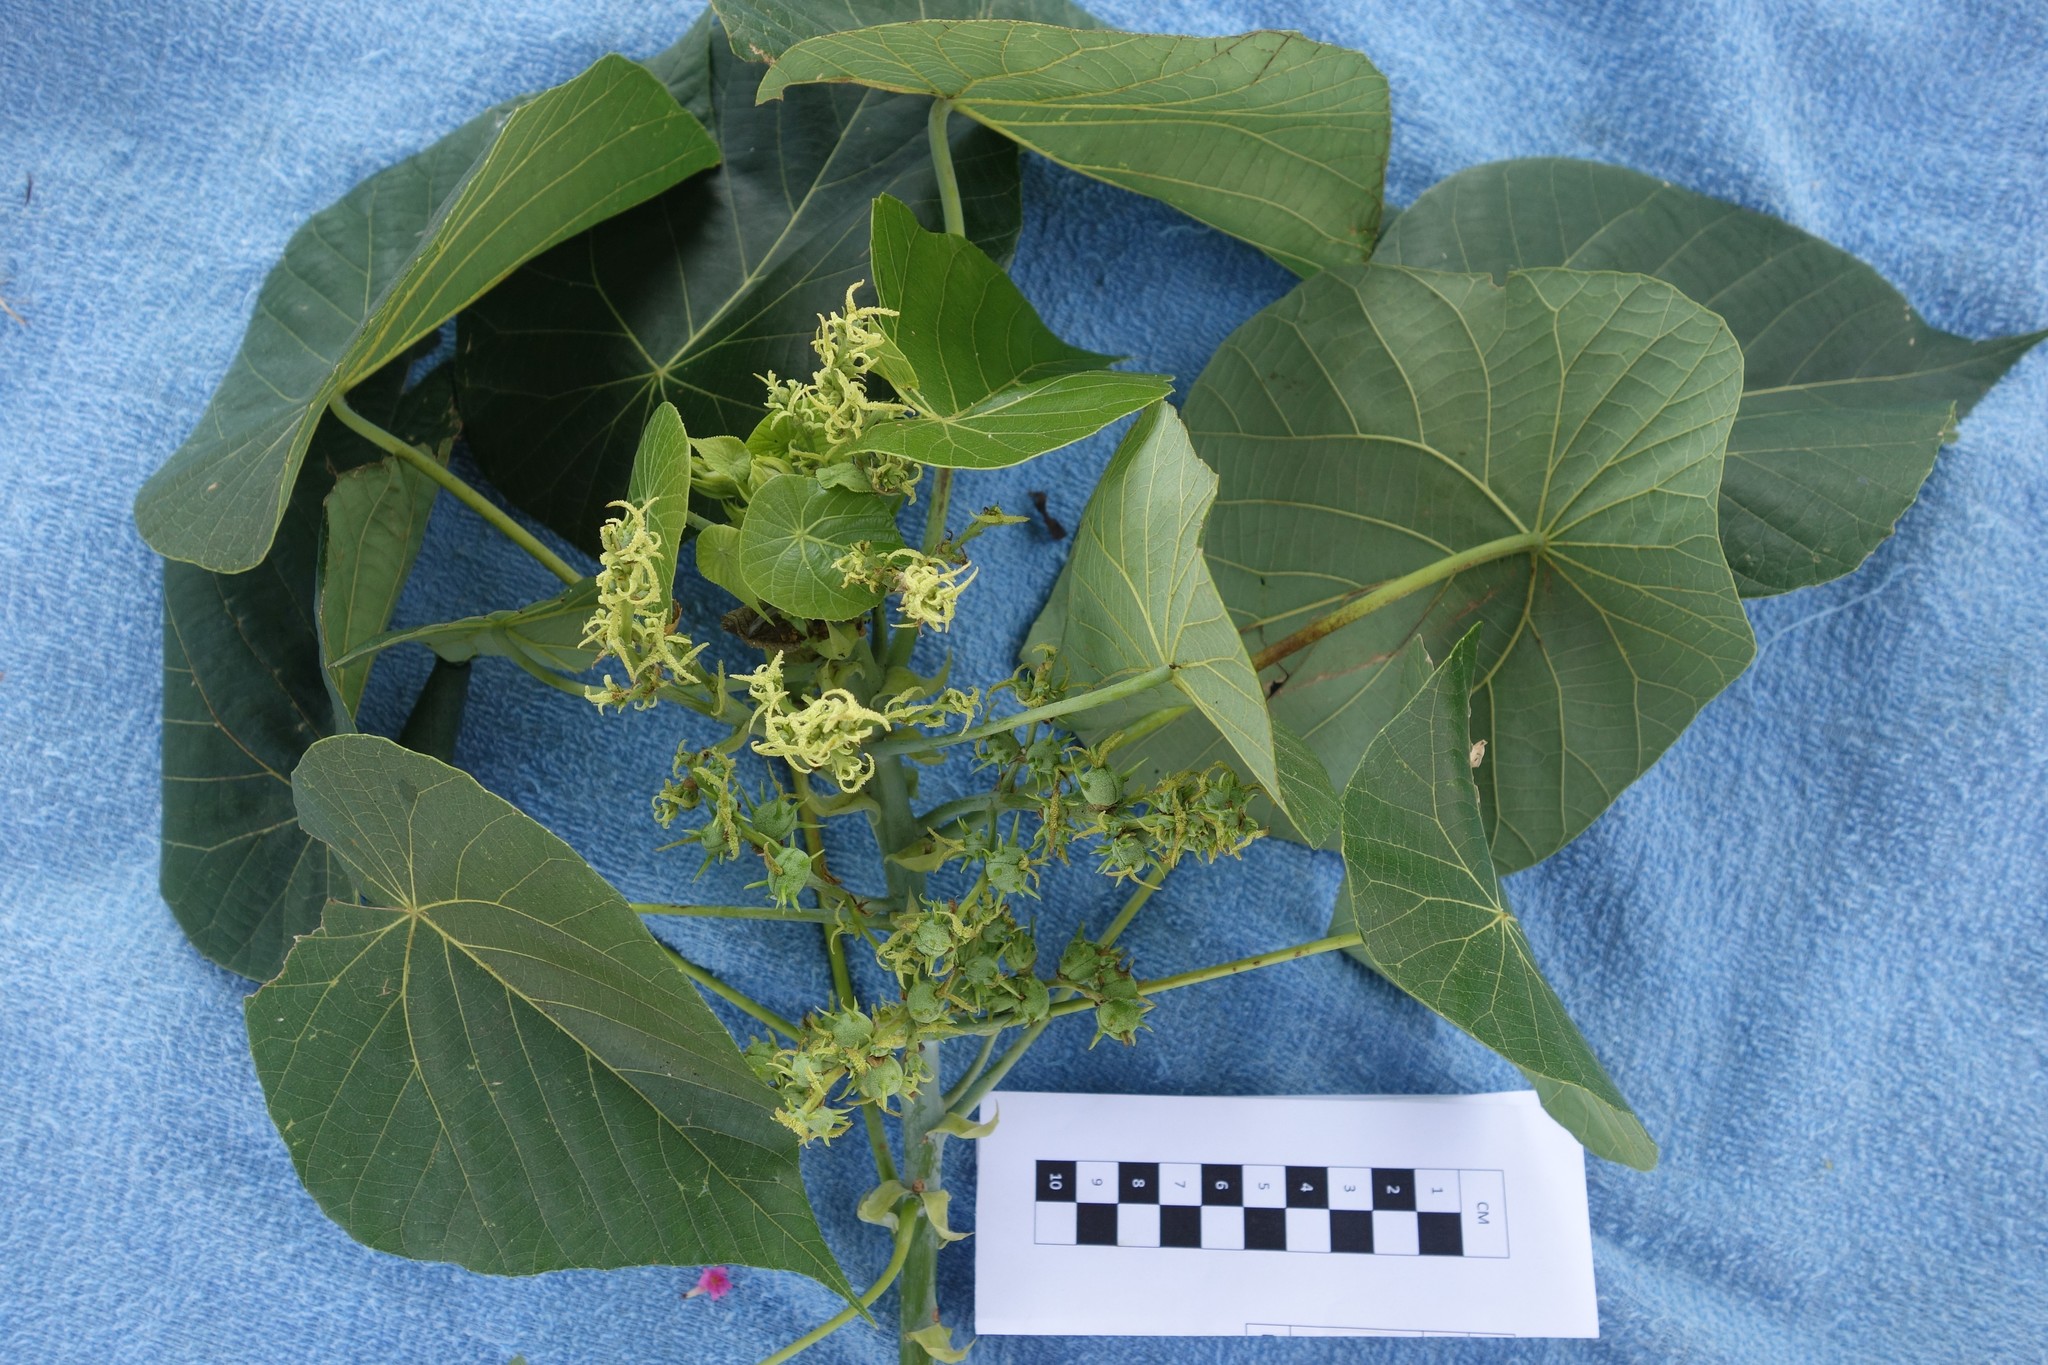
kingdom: Plantae
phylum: Tracheophyta
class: Magnoliopsida
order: Malpighiales
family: Euphorbiaceae
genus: Macaranga
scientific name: Macaranga tanarius
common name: Parasol leaf tree
